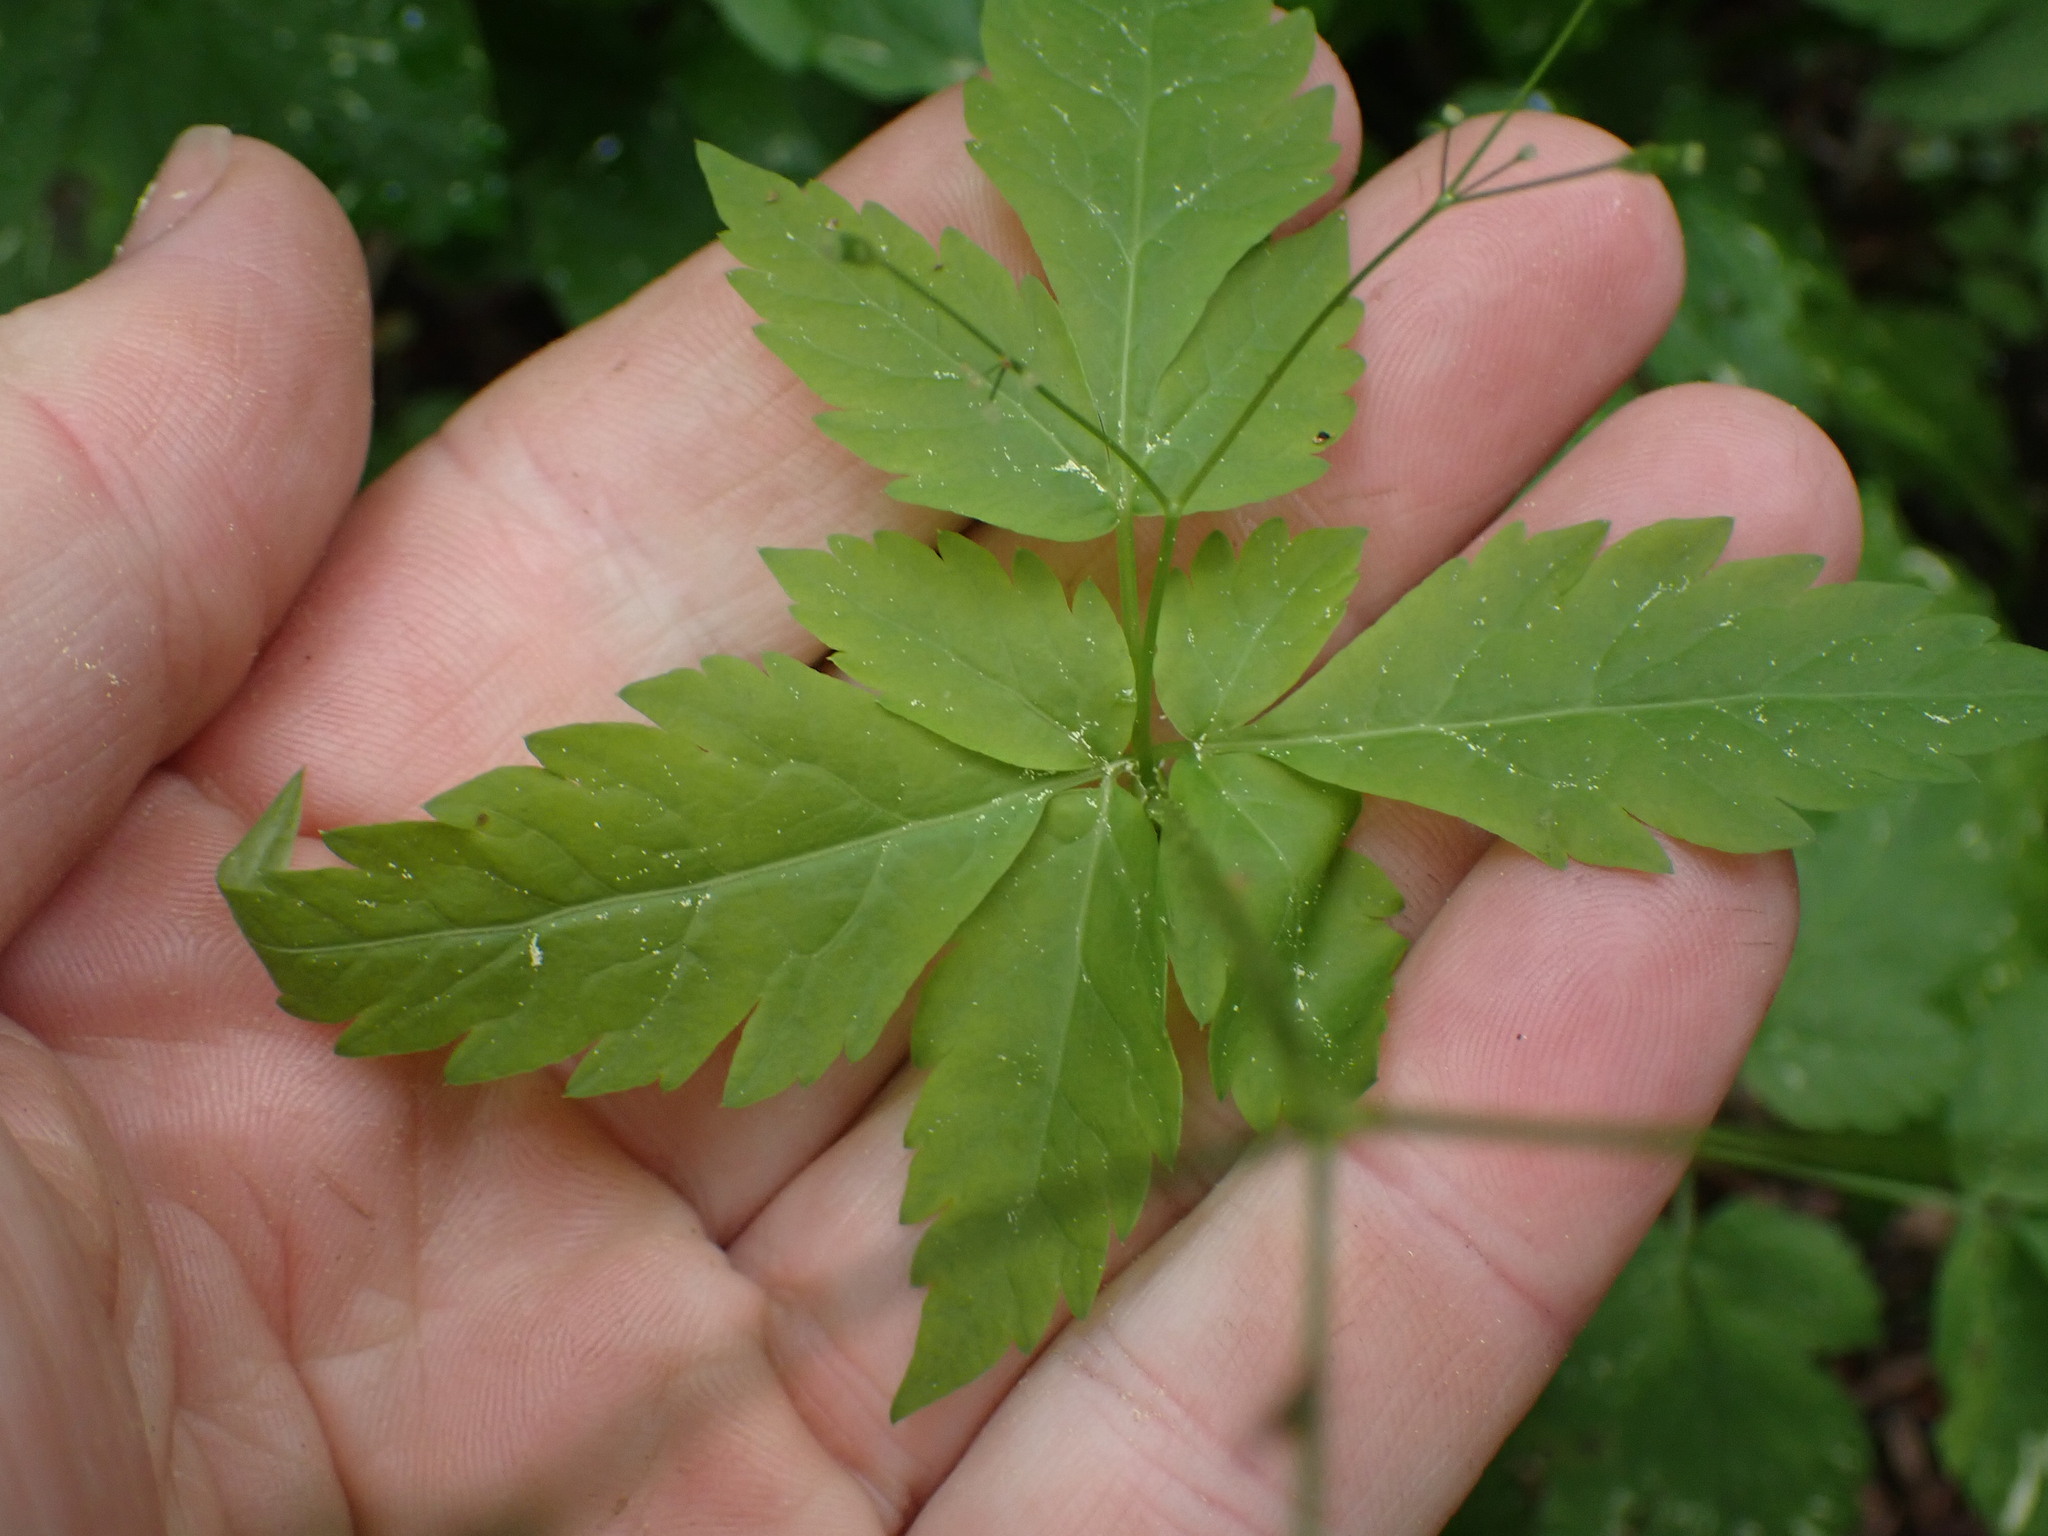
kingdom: Plantae
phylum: Tracheophyta
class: Magnoliopsida
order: Apiales
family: Apiaceae
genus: Osmorhiza
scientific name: Osmorhiza berteroi
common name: Mountain sweet cicely
